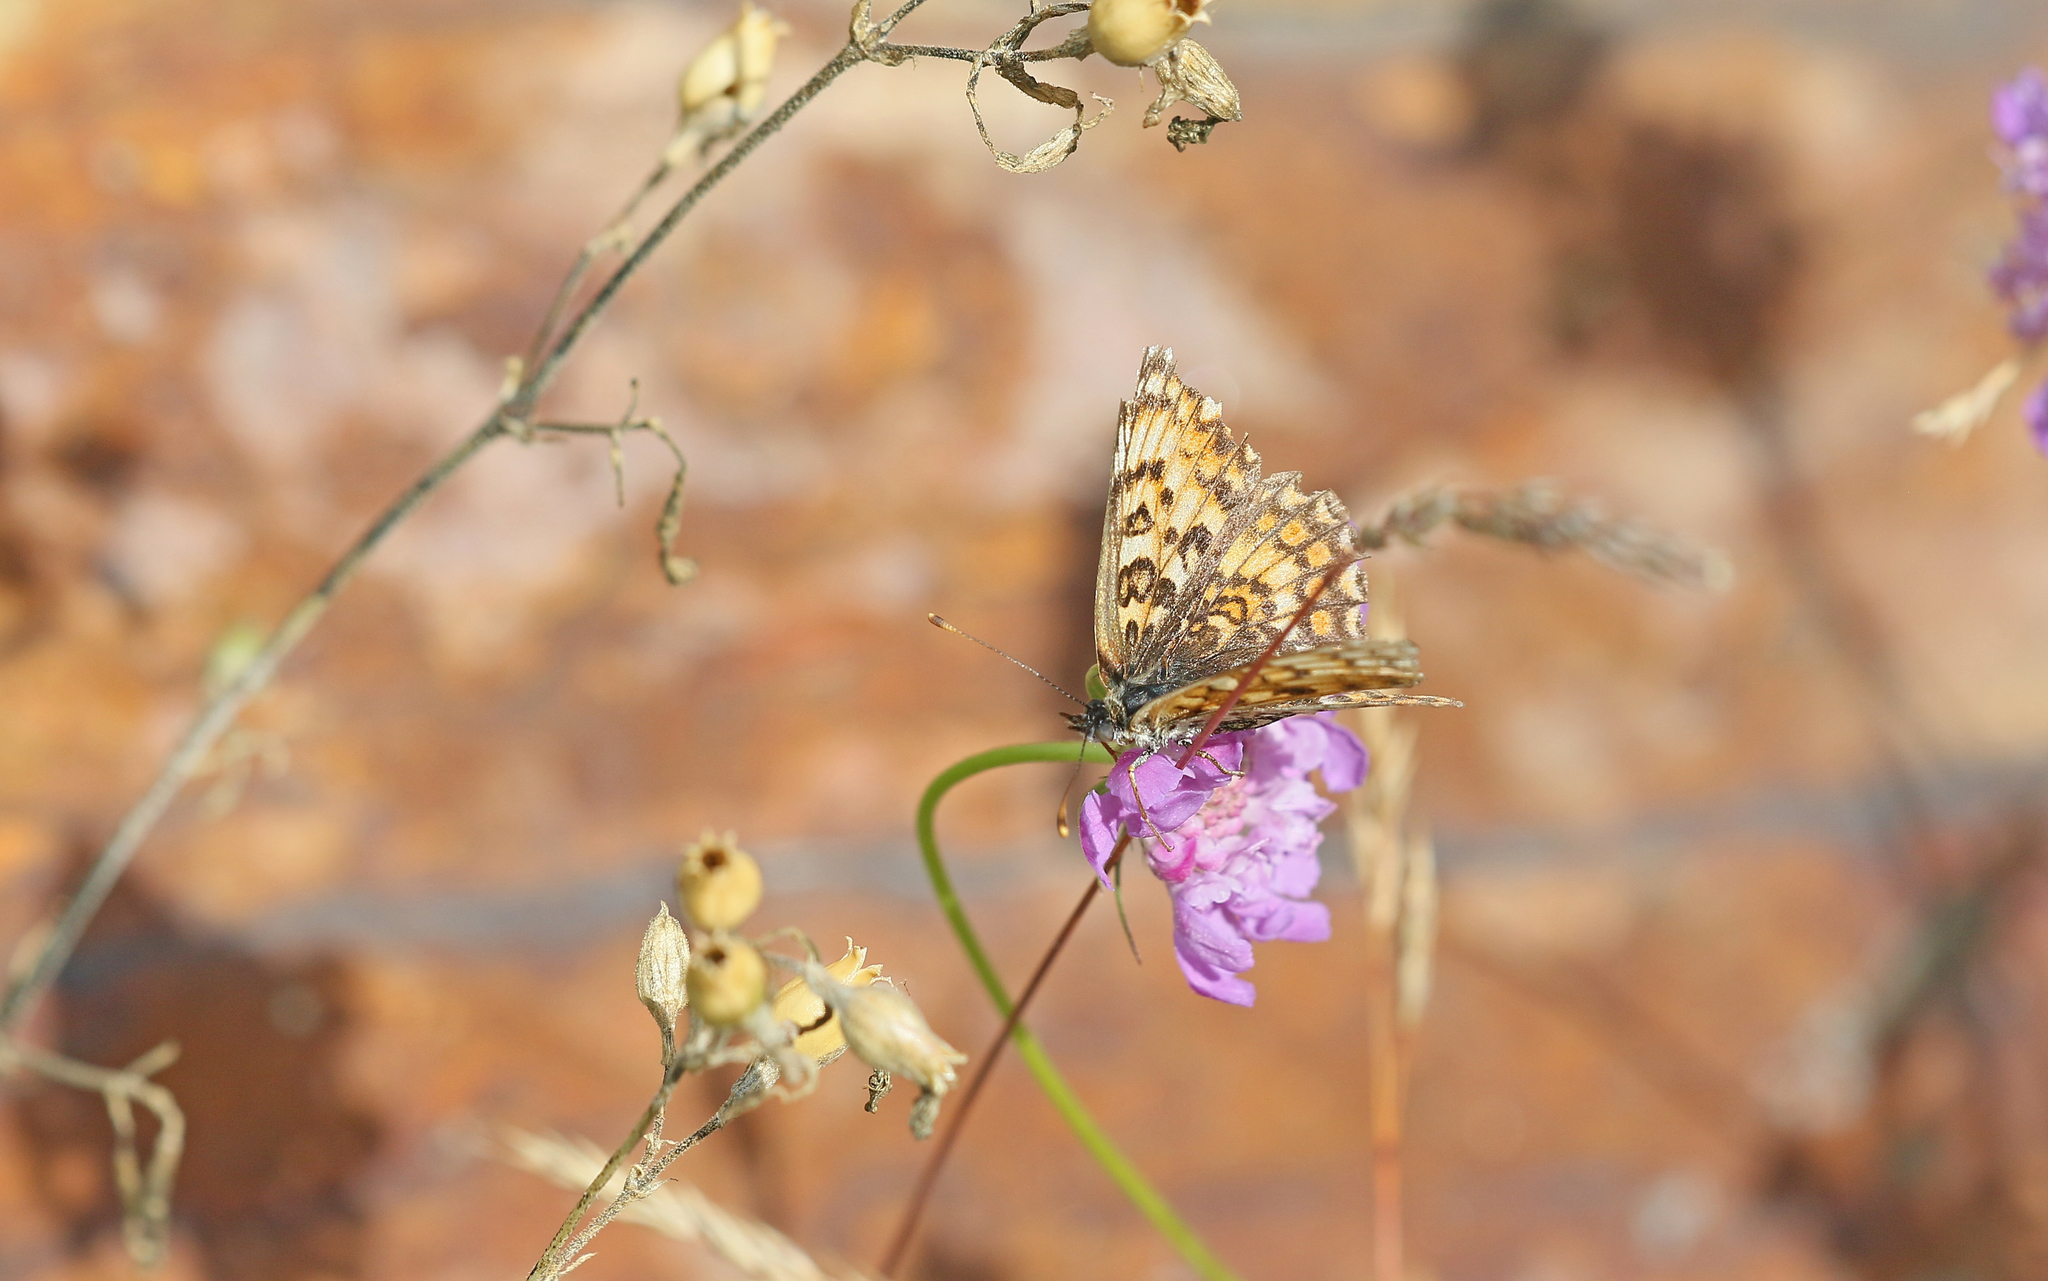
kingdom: Animalia
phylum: Arthropoda
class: Insecta
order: Lepidoptera
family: Nymphalidae
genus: Melitaea
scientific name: Melitaea phoebe
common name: Knapweed fritillary
